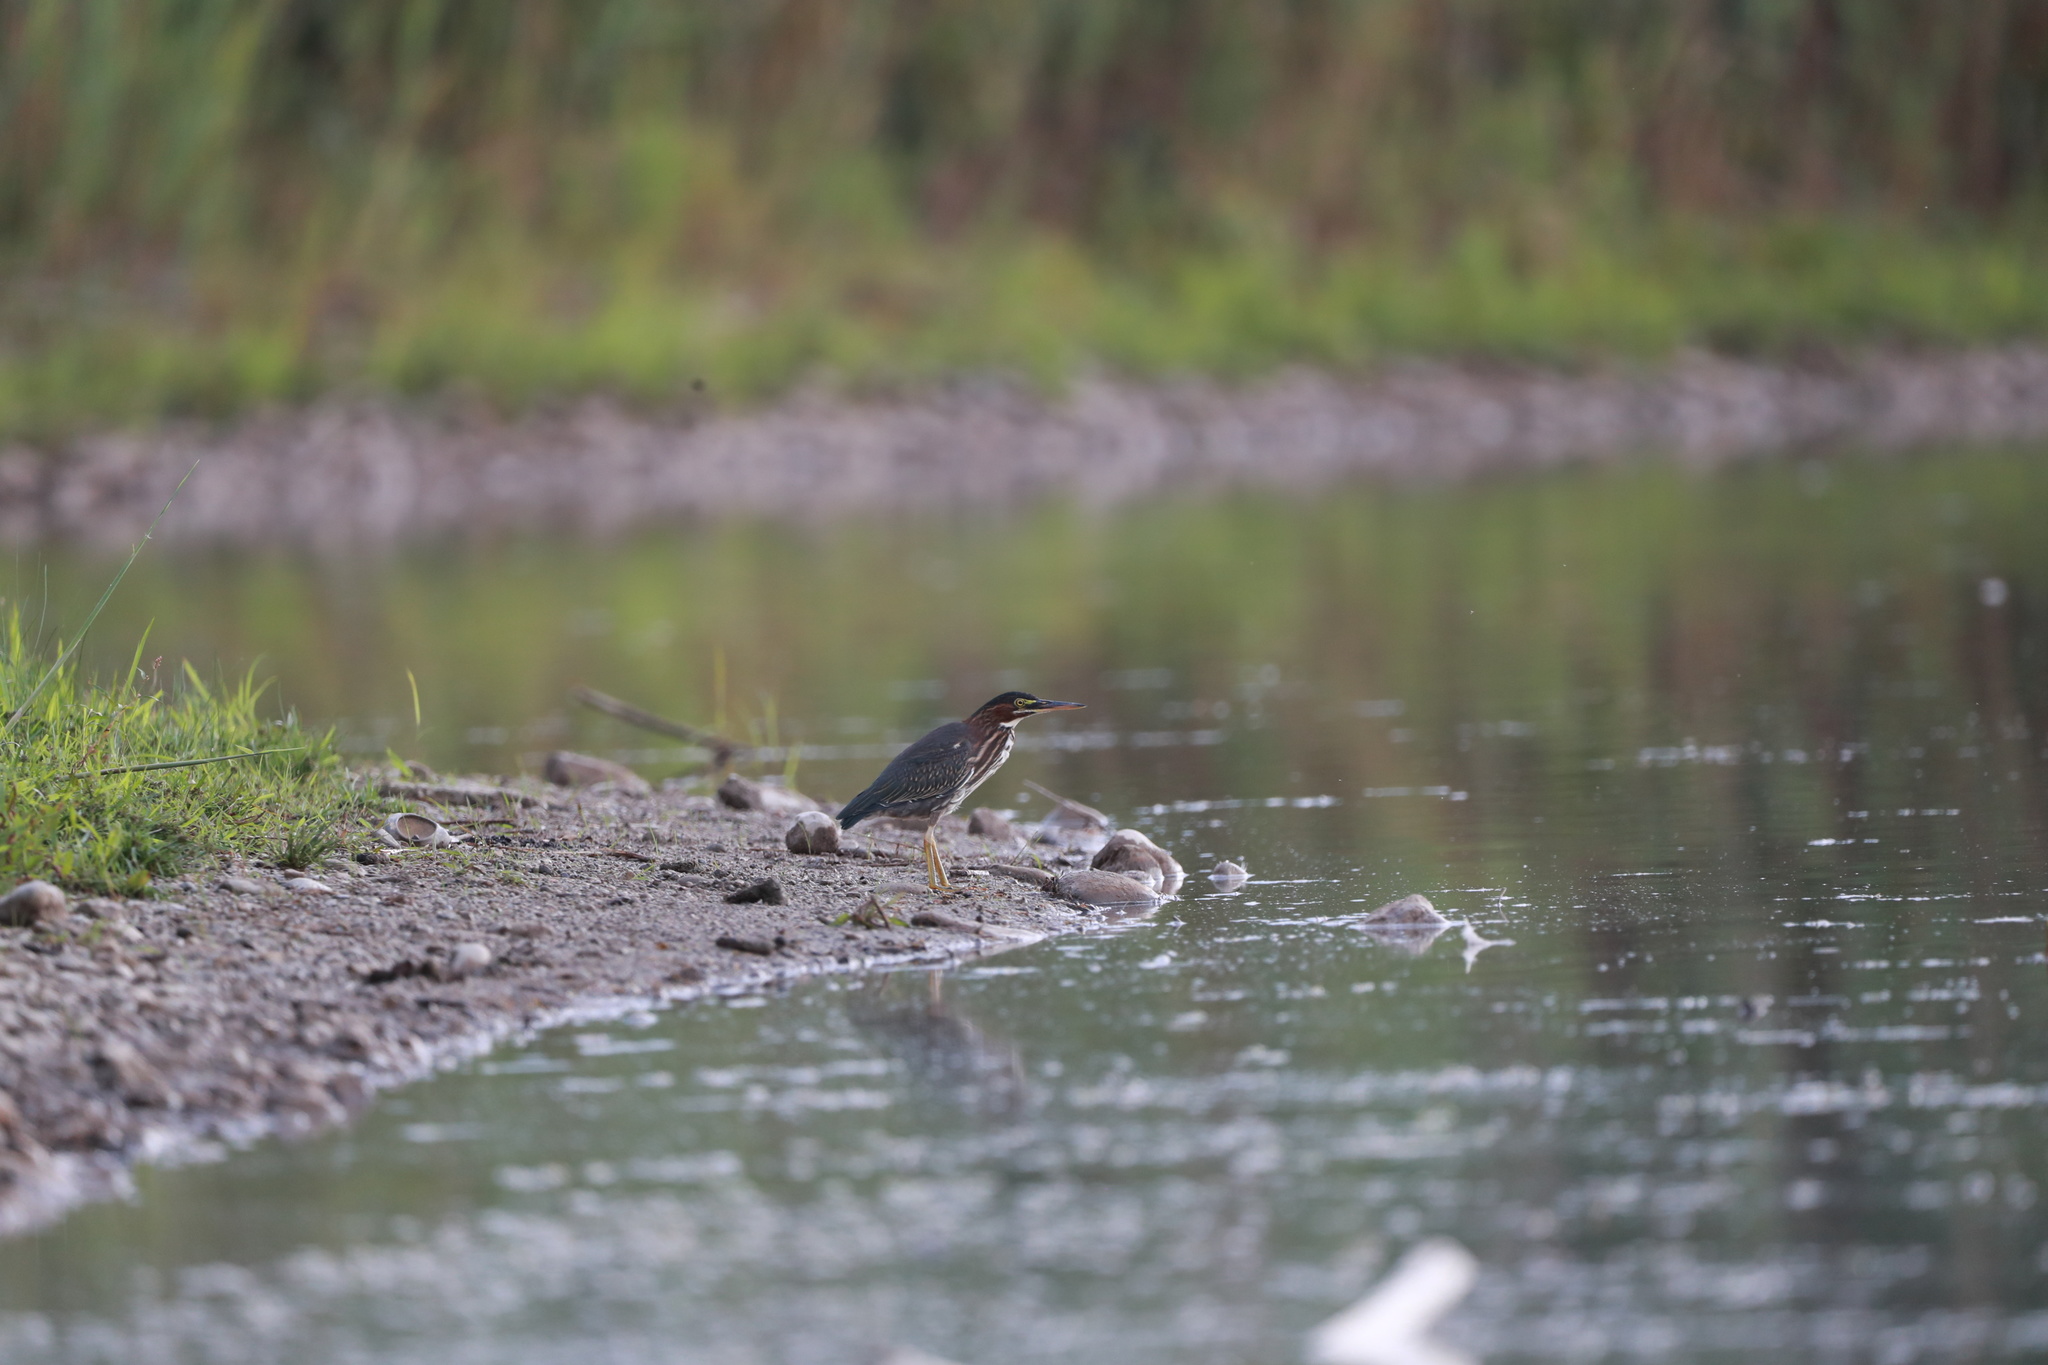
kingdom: Animalia
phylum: Chordata
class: Aves
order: Pelecaniformes
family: Ardeidae
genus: Butorides
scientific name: Butorides virescens
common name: Green heron
